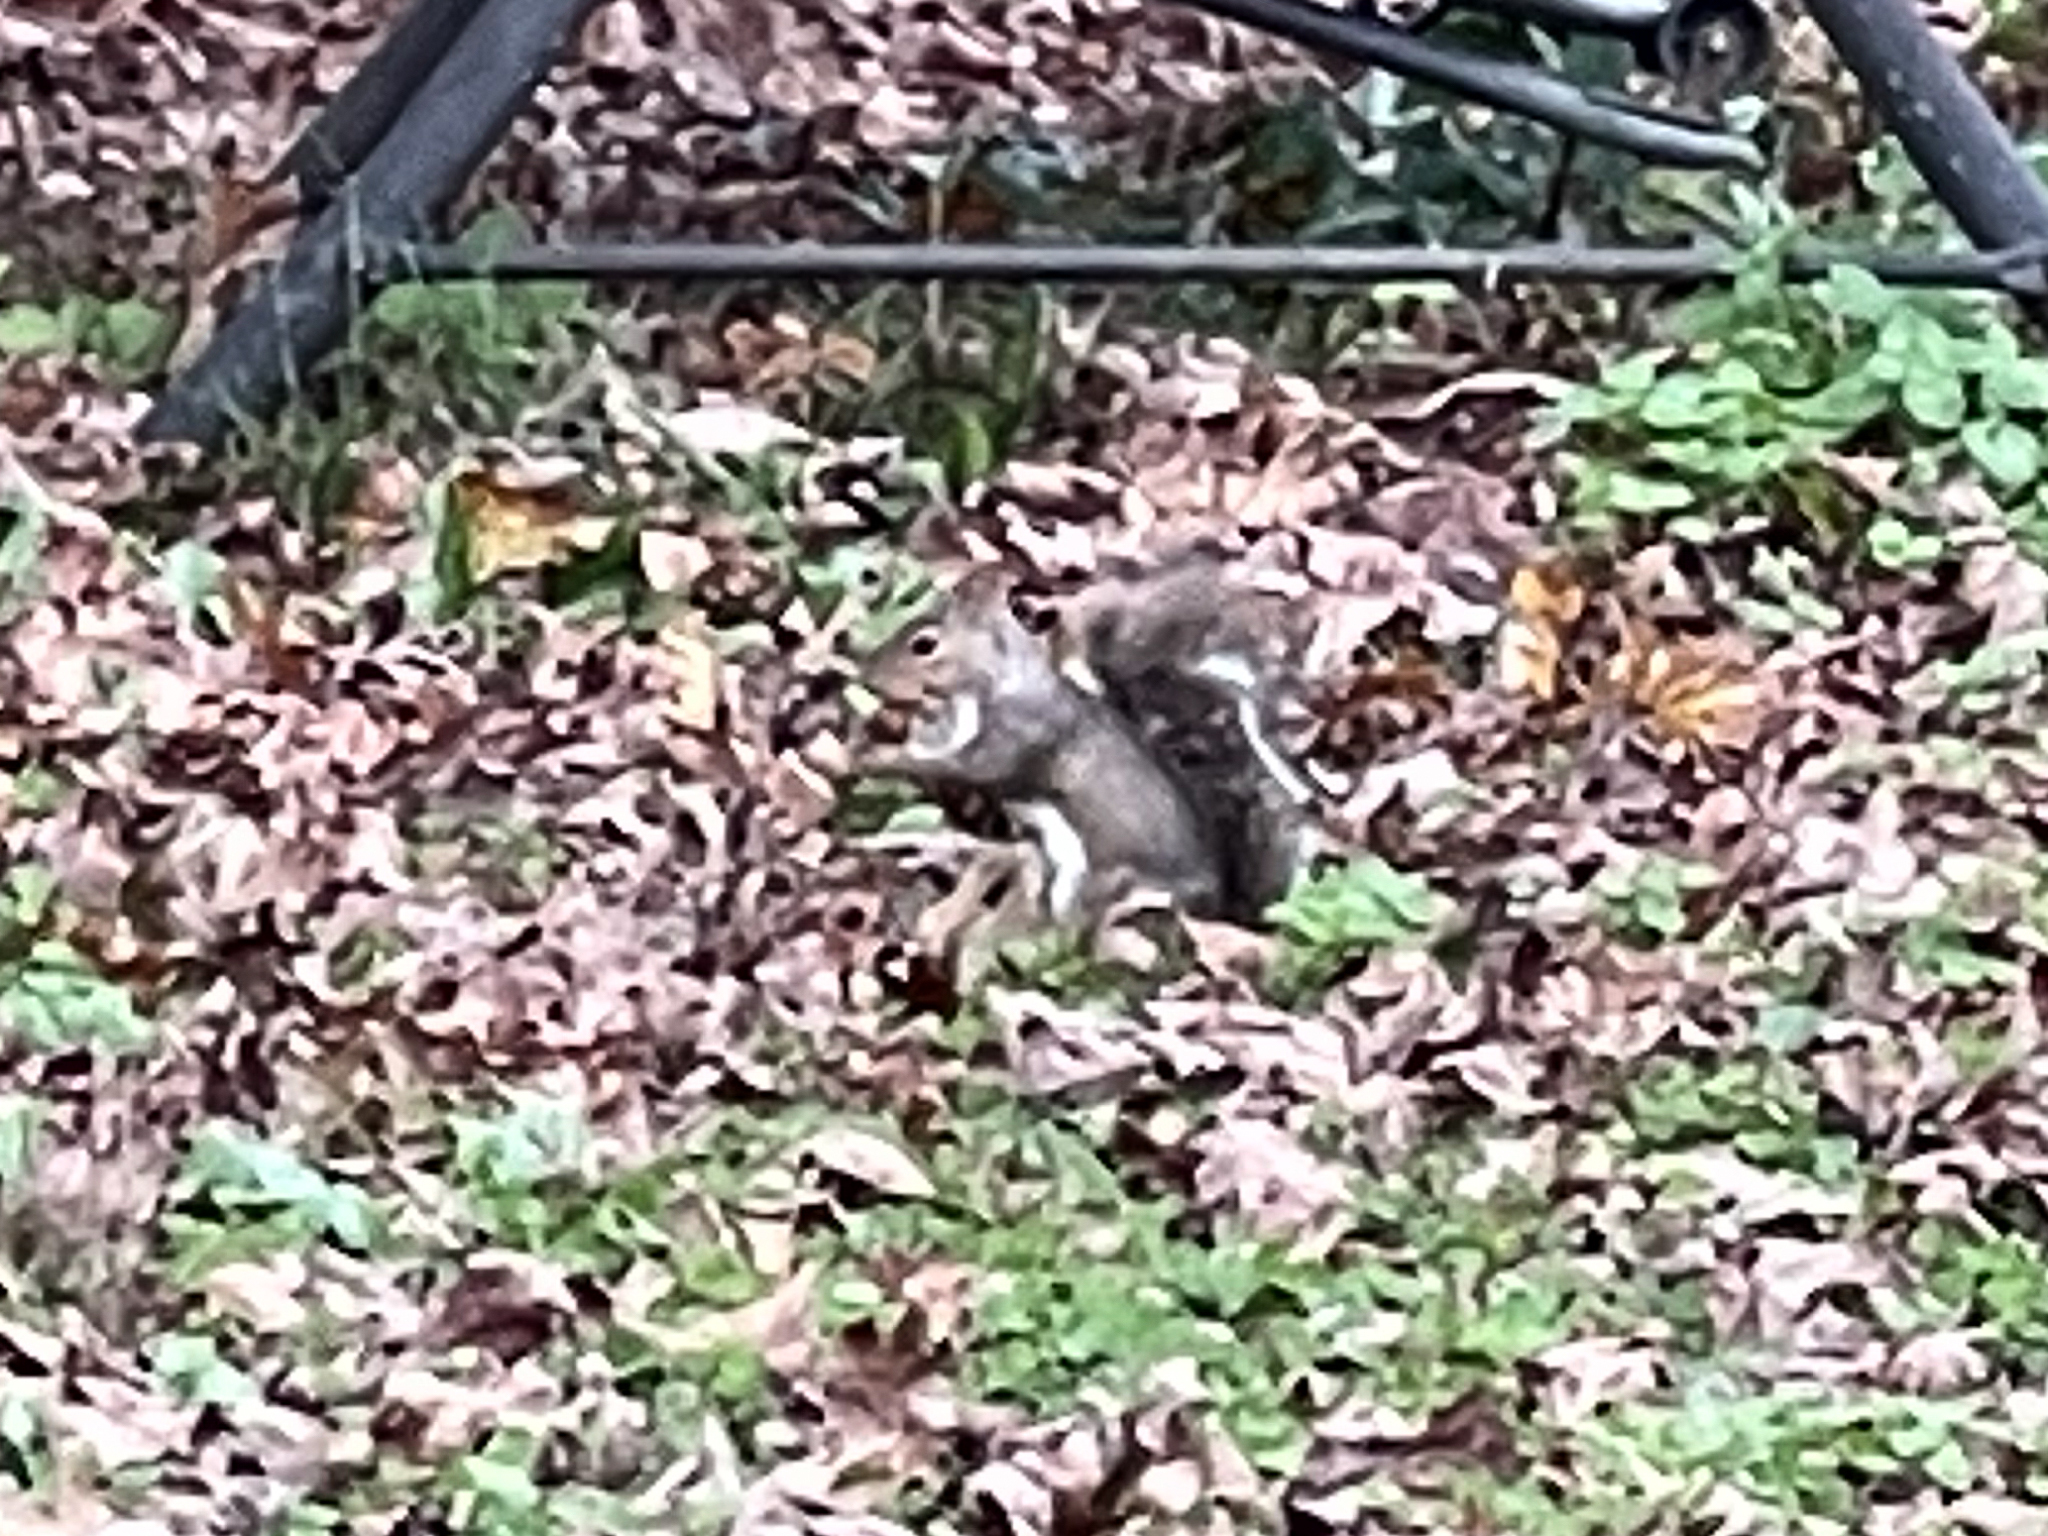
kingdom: Animalia
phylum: Chordata
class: Mammalia
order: Rodentia
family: Sciuridae
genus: Sciurus
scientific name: Sciurus carolinensis
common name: Eastern gray squirrel
